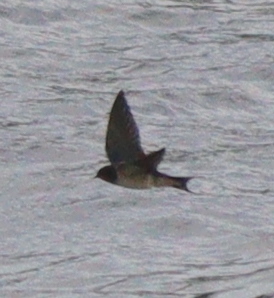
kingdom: Animalia
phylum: Chordata
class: Aves
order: Passeriformes
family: Hirundinidae
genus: Hirundo
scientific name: Hirundo rustica
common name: Barn swallow
